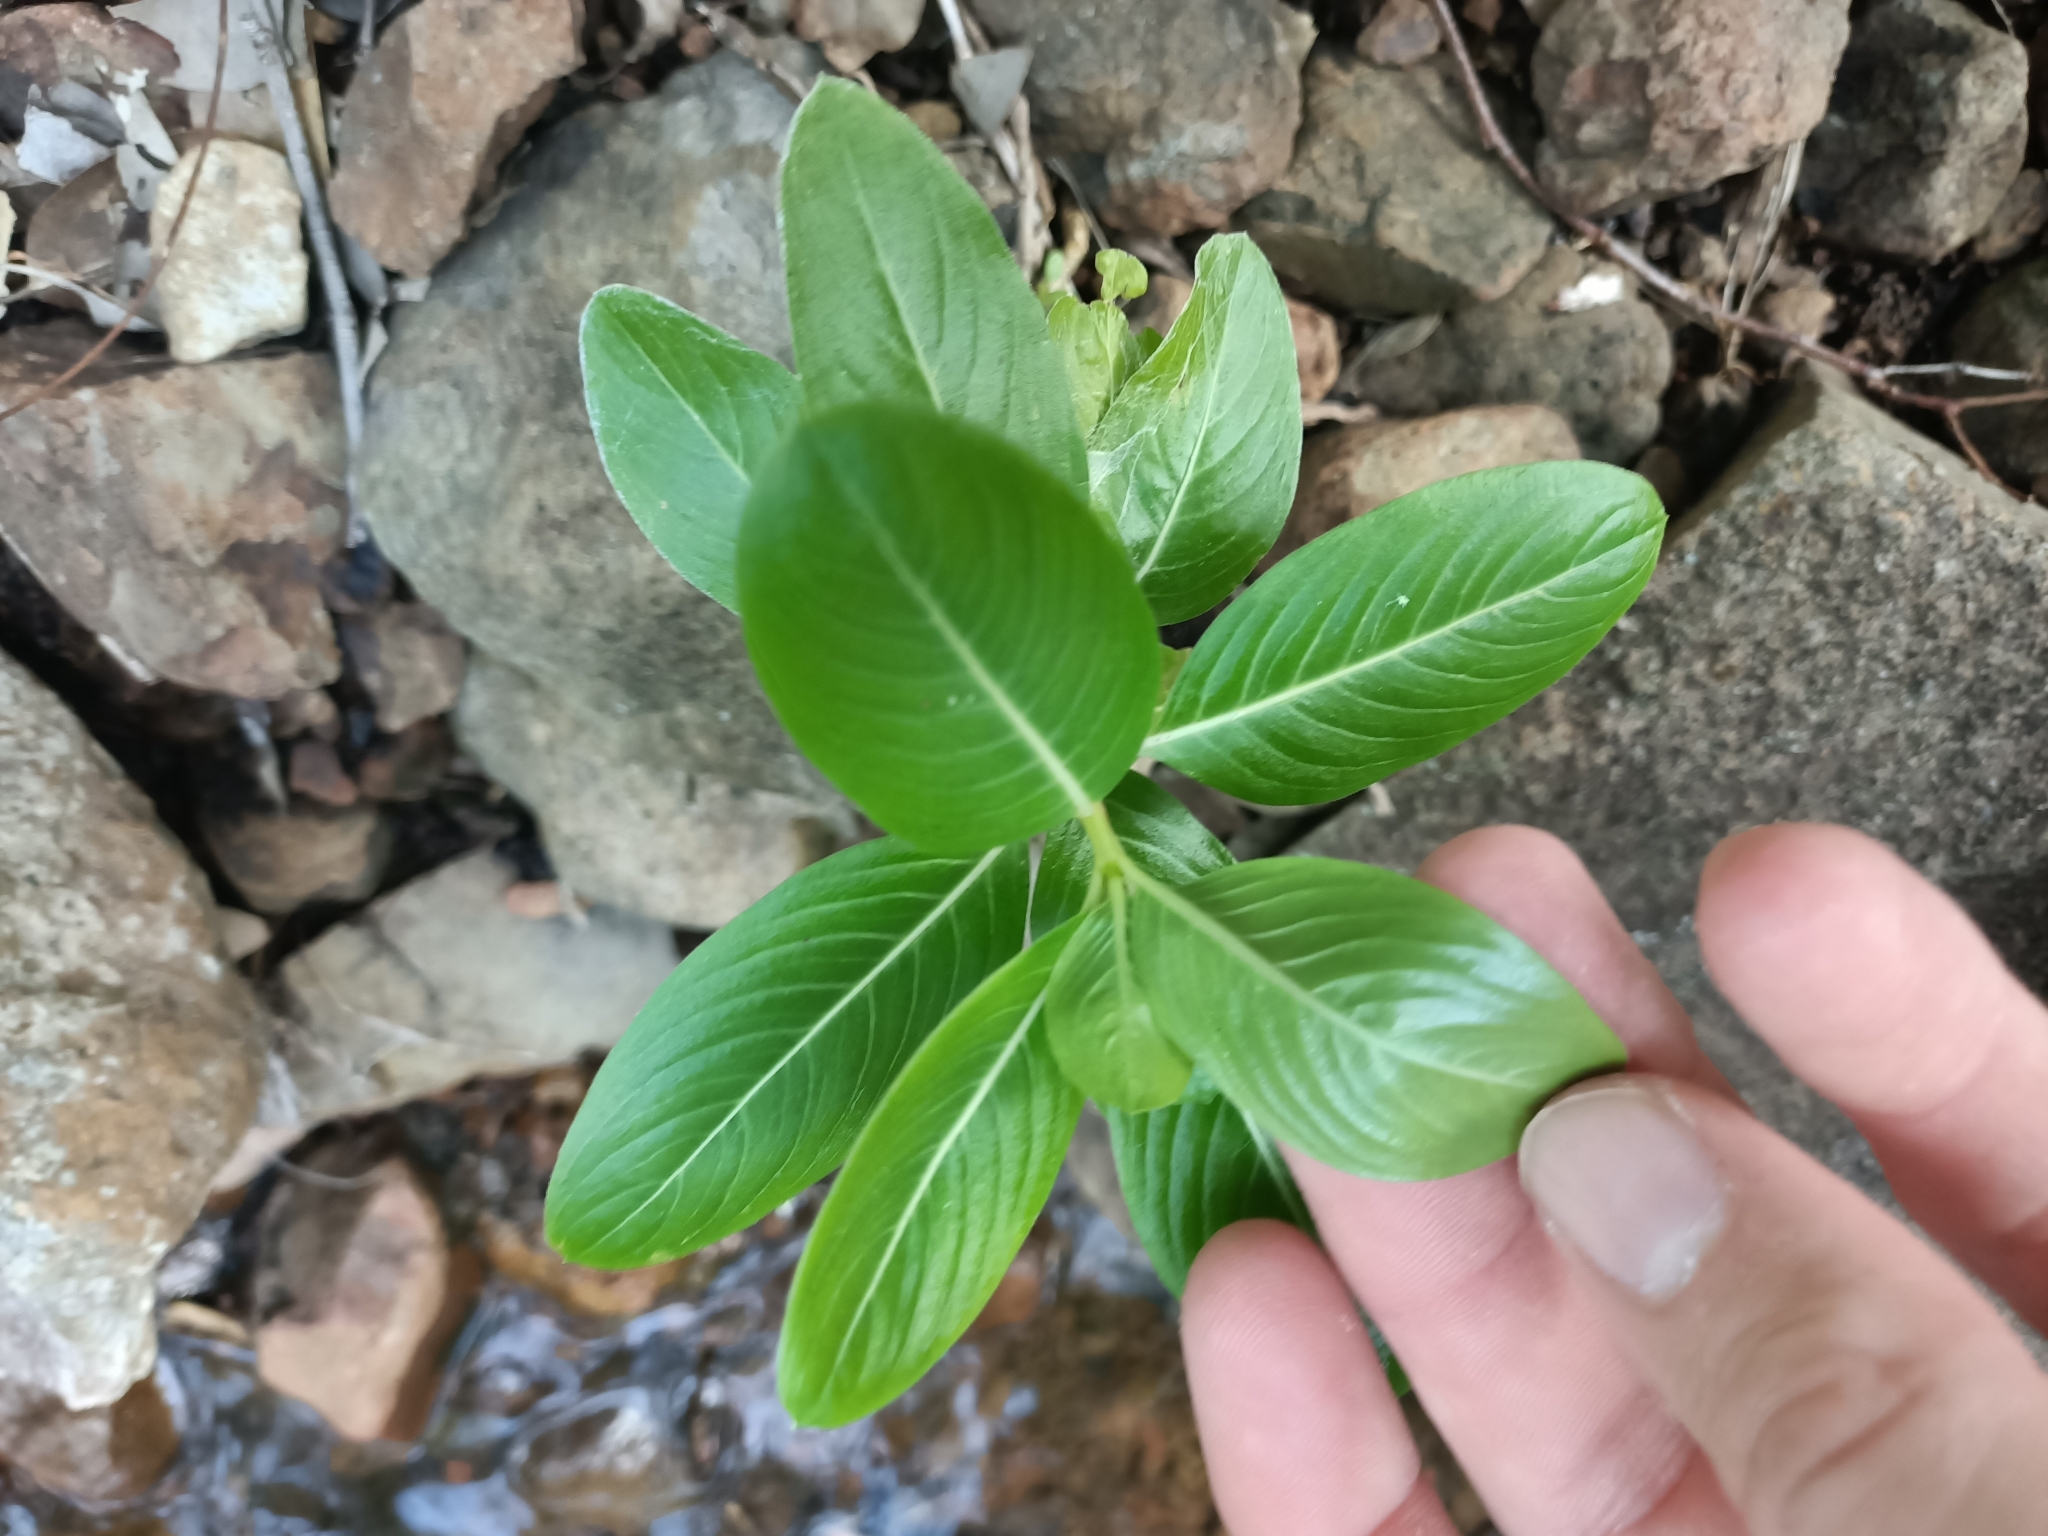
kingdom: Plantae
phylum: Tracheophyta
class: Magnoliopsida
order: Gentianales
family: Apocynaceae
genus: Catharanthus
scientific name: Catharanthus roseus
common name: Madagascar periwinkle
